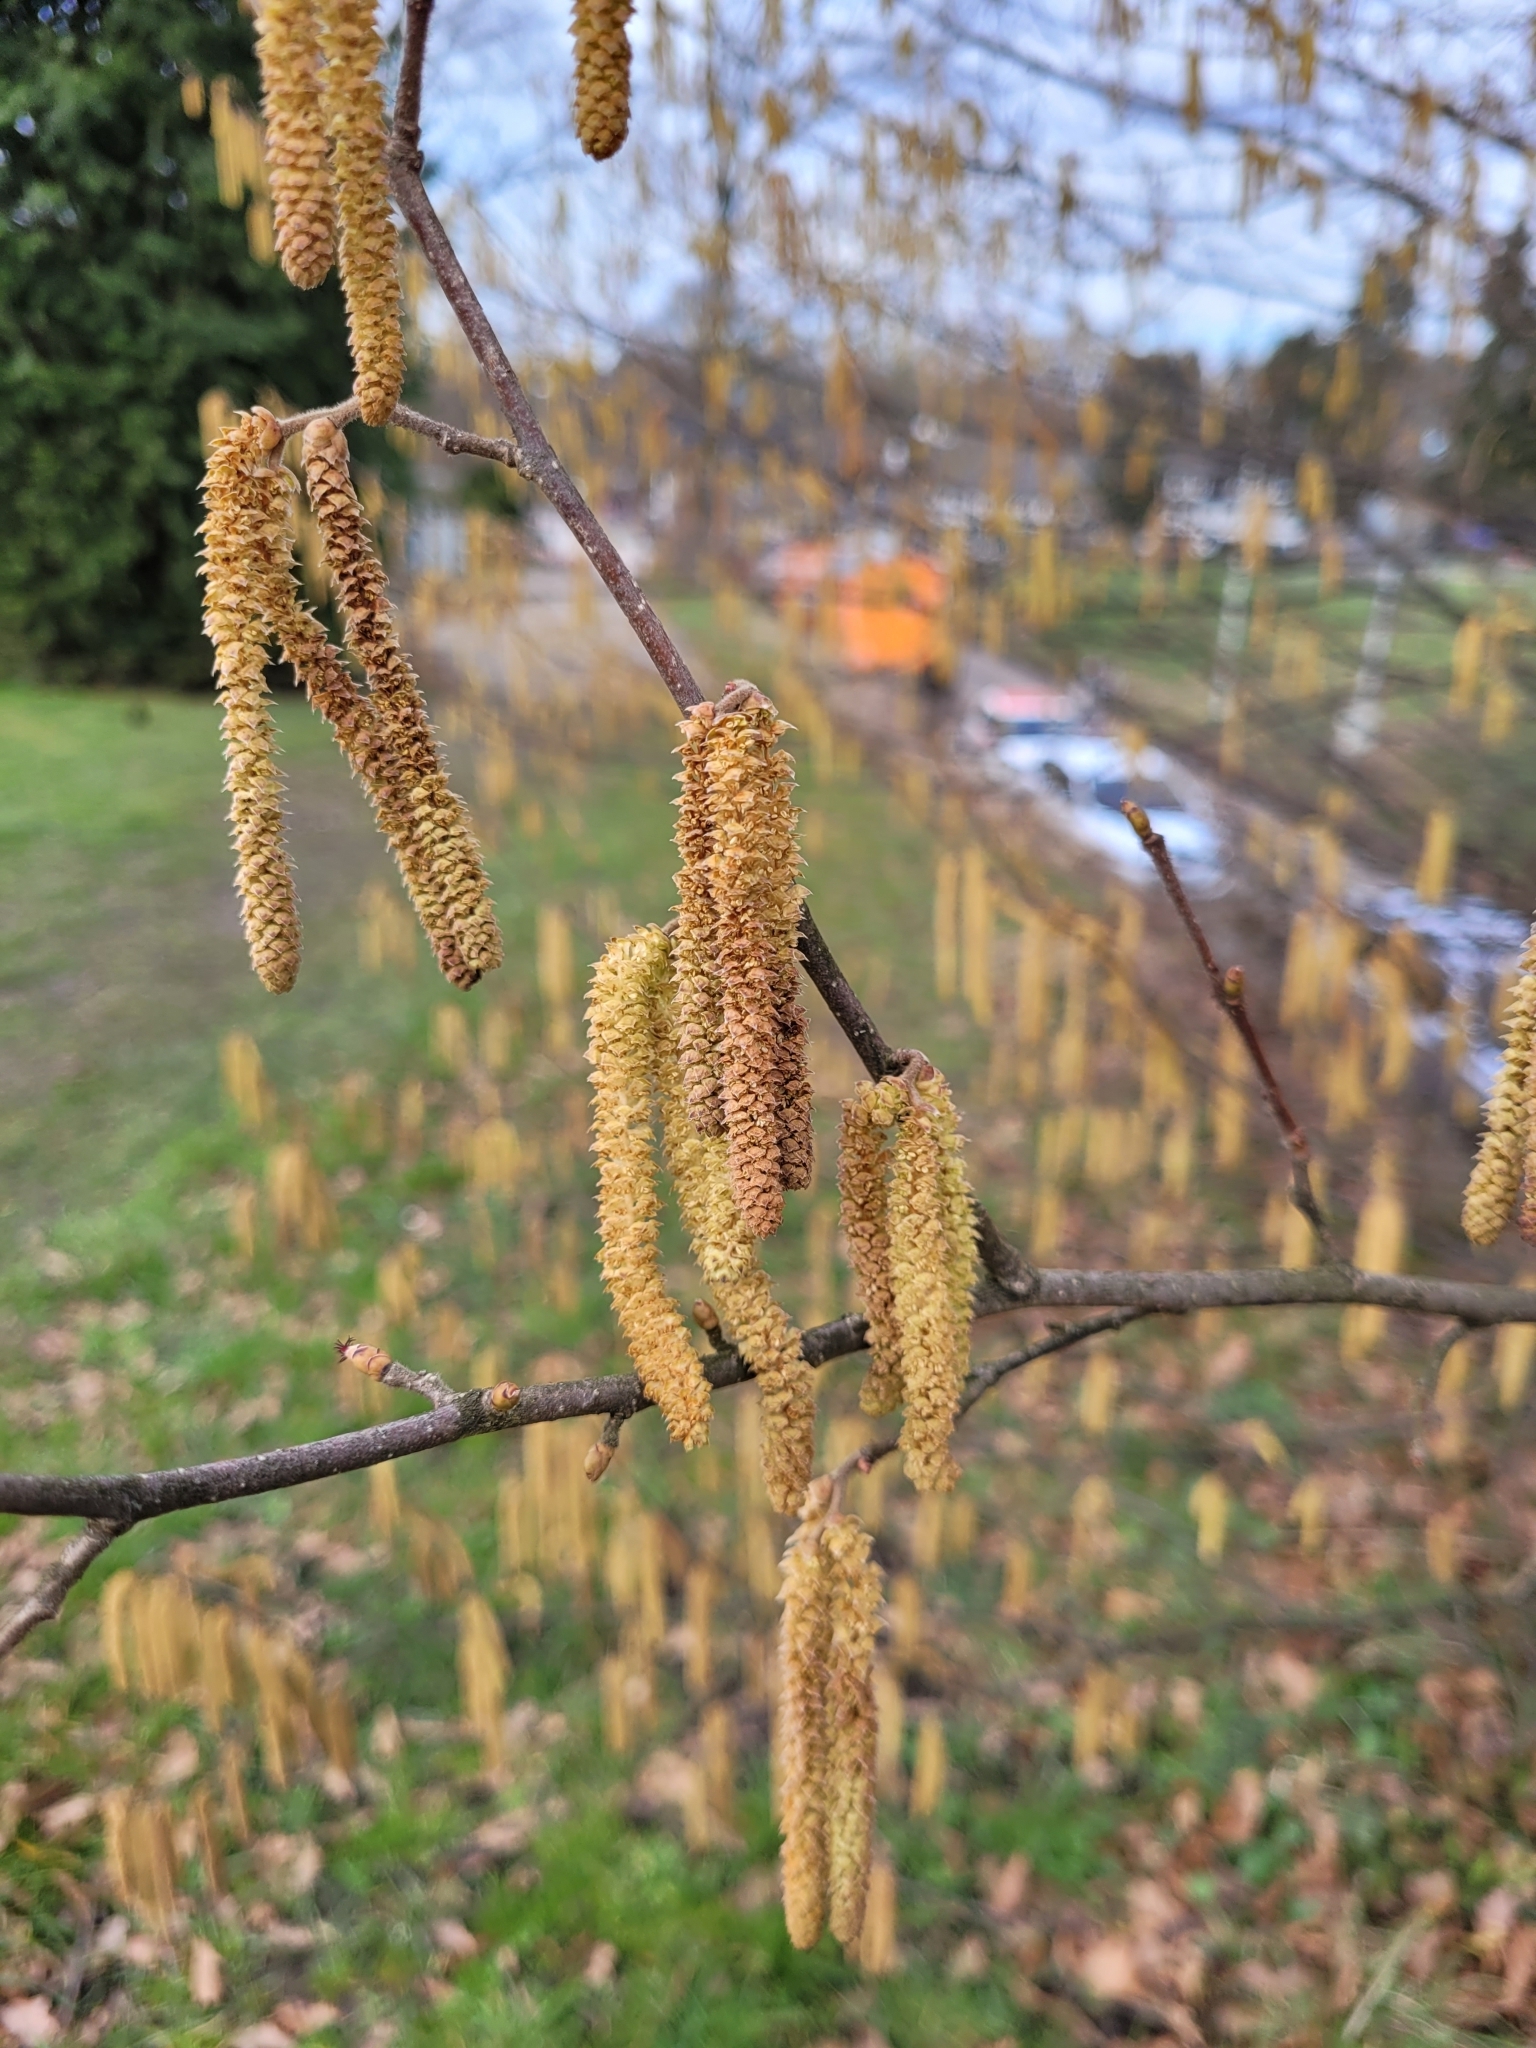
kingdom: Plantae
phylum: Tracheophyta
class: Magnoliopsida
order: Fagales
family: Betulaceae
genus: Corylus
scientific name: Corylus avellana
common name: European hazel
